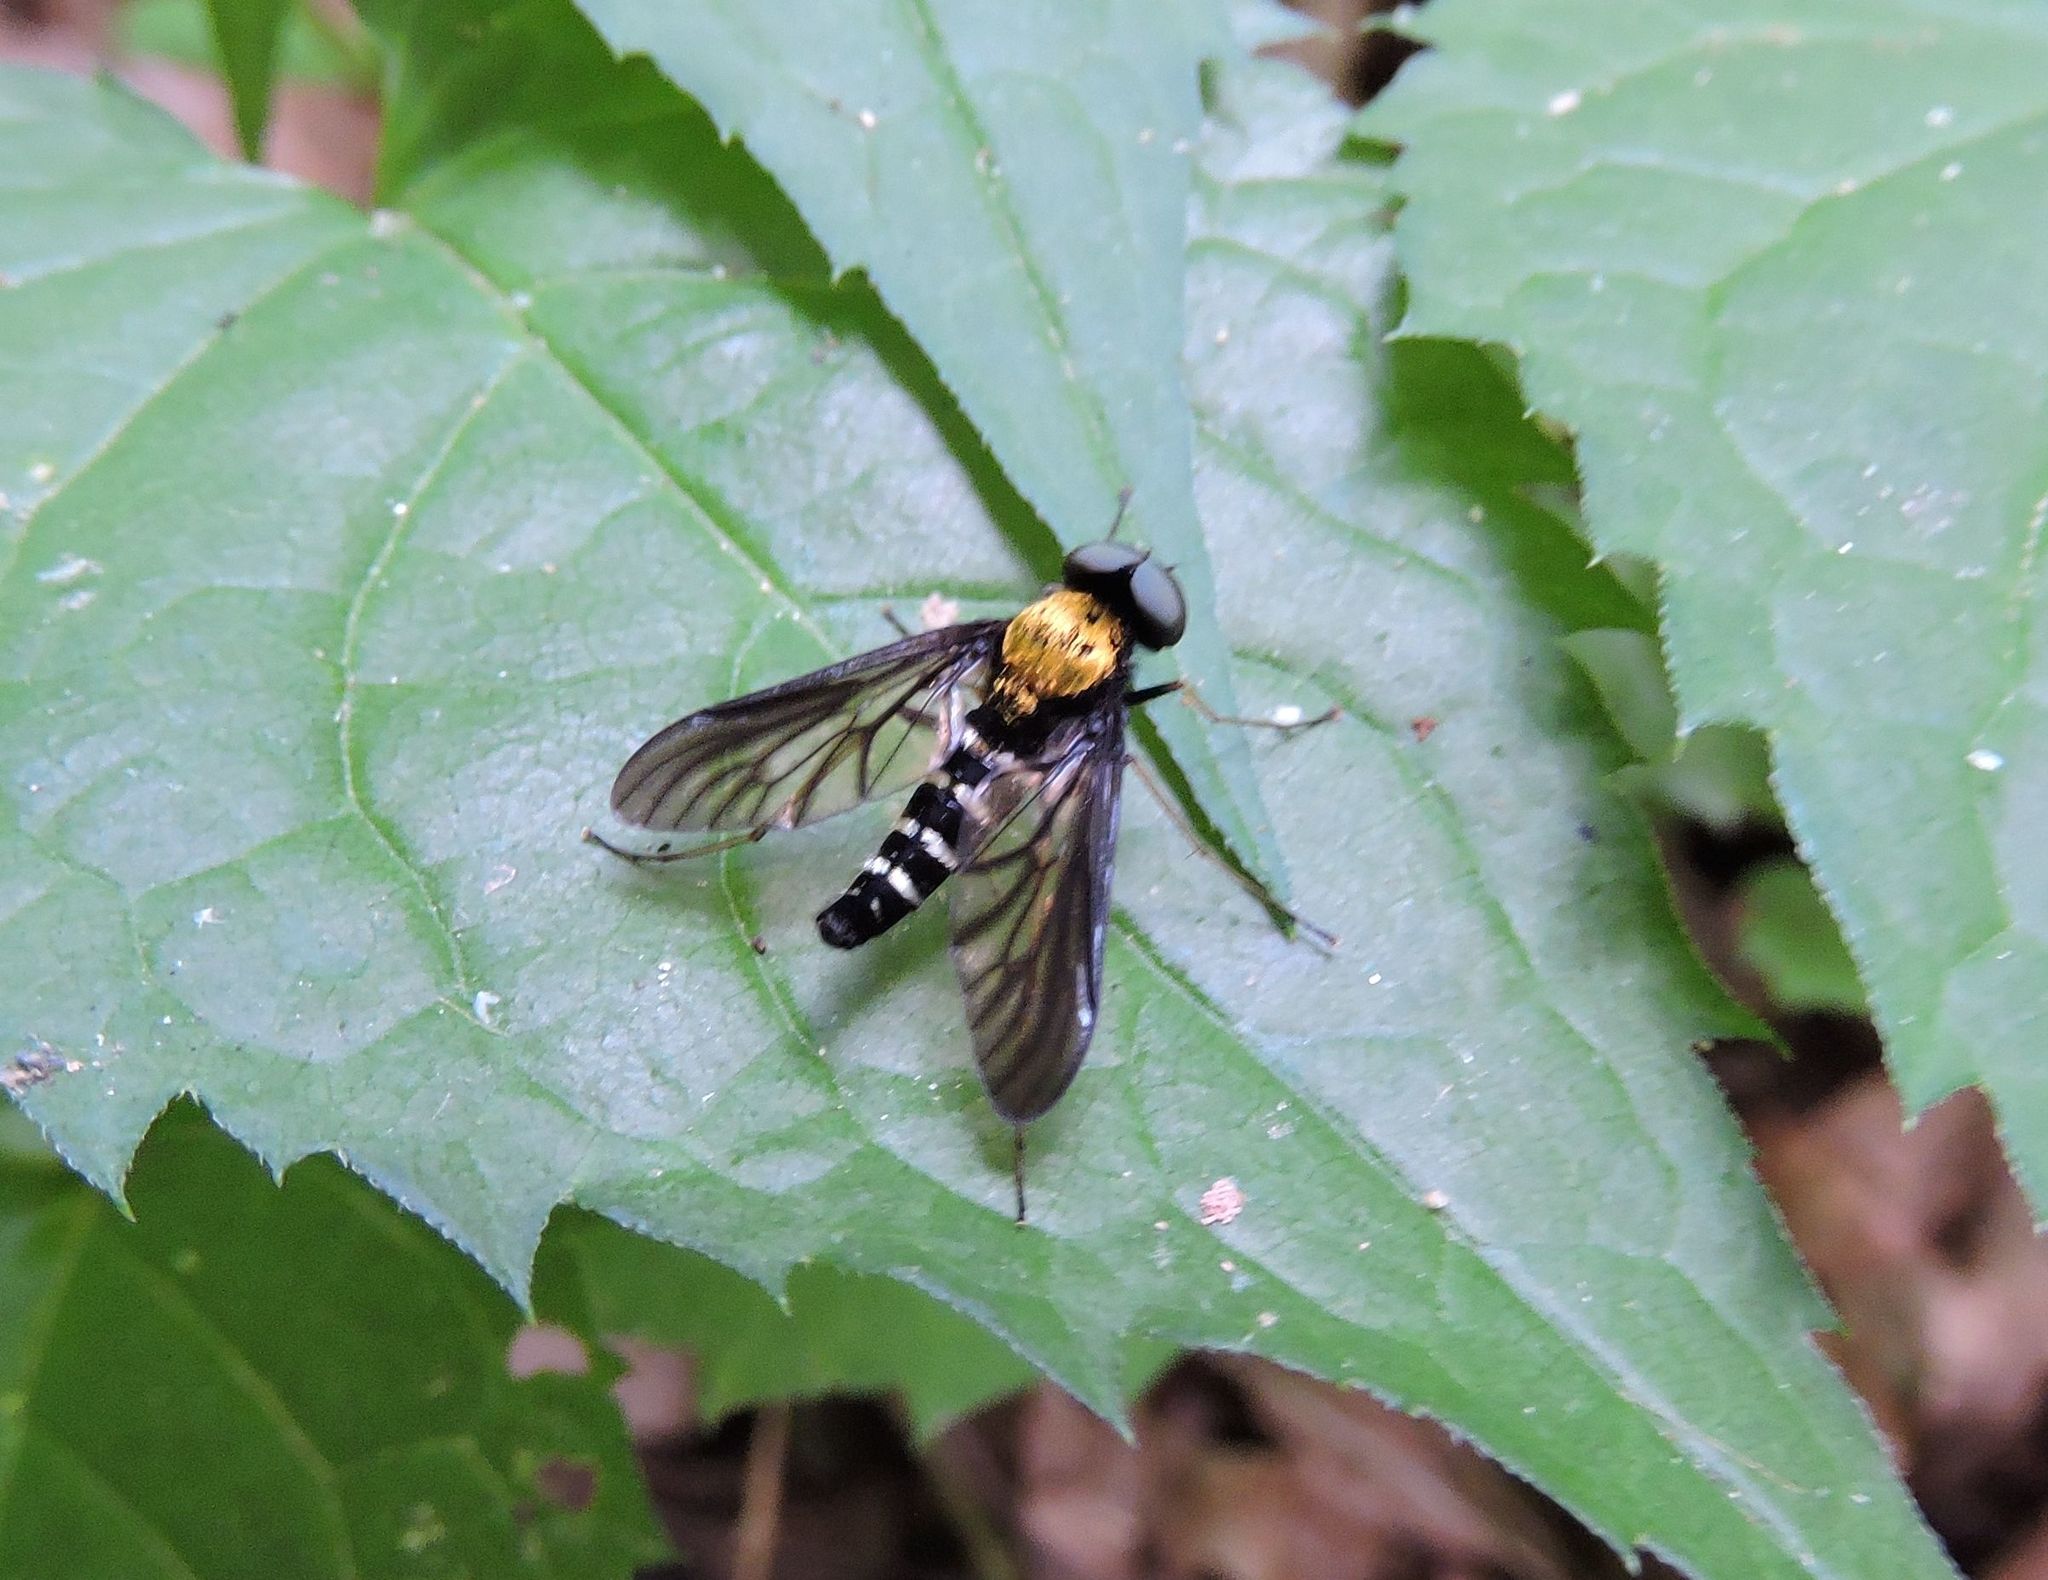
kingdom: Animalia
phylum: Arthropoda
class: Insecta
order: Diptera
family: Rhagionidae
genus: Chrysopilus
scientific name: Chrysopilus thoracicus
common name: Golden-backed snipe fly
